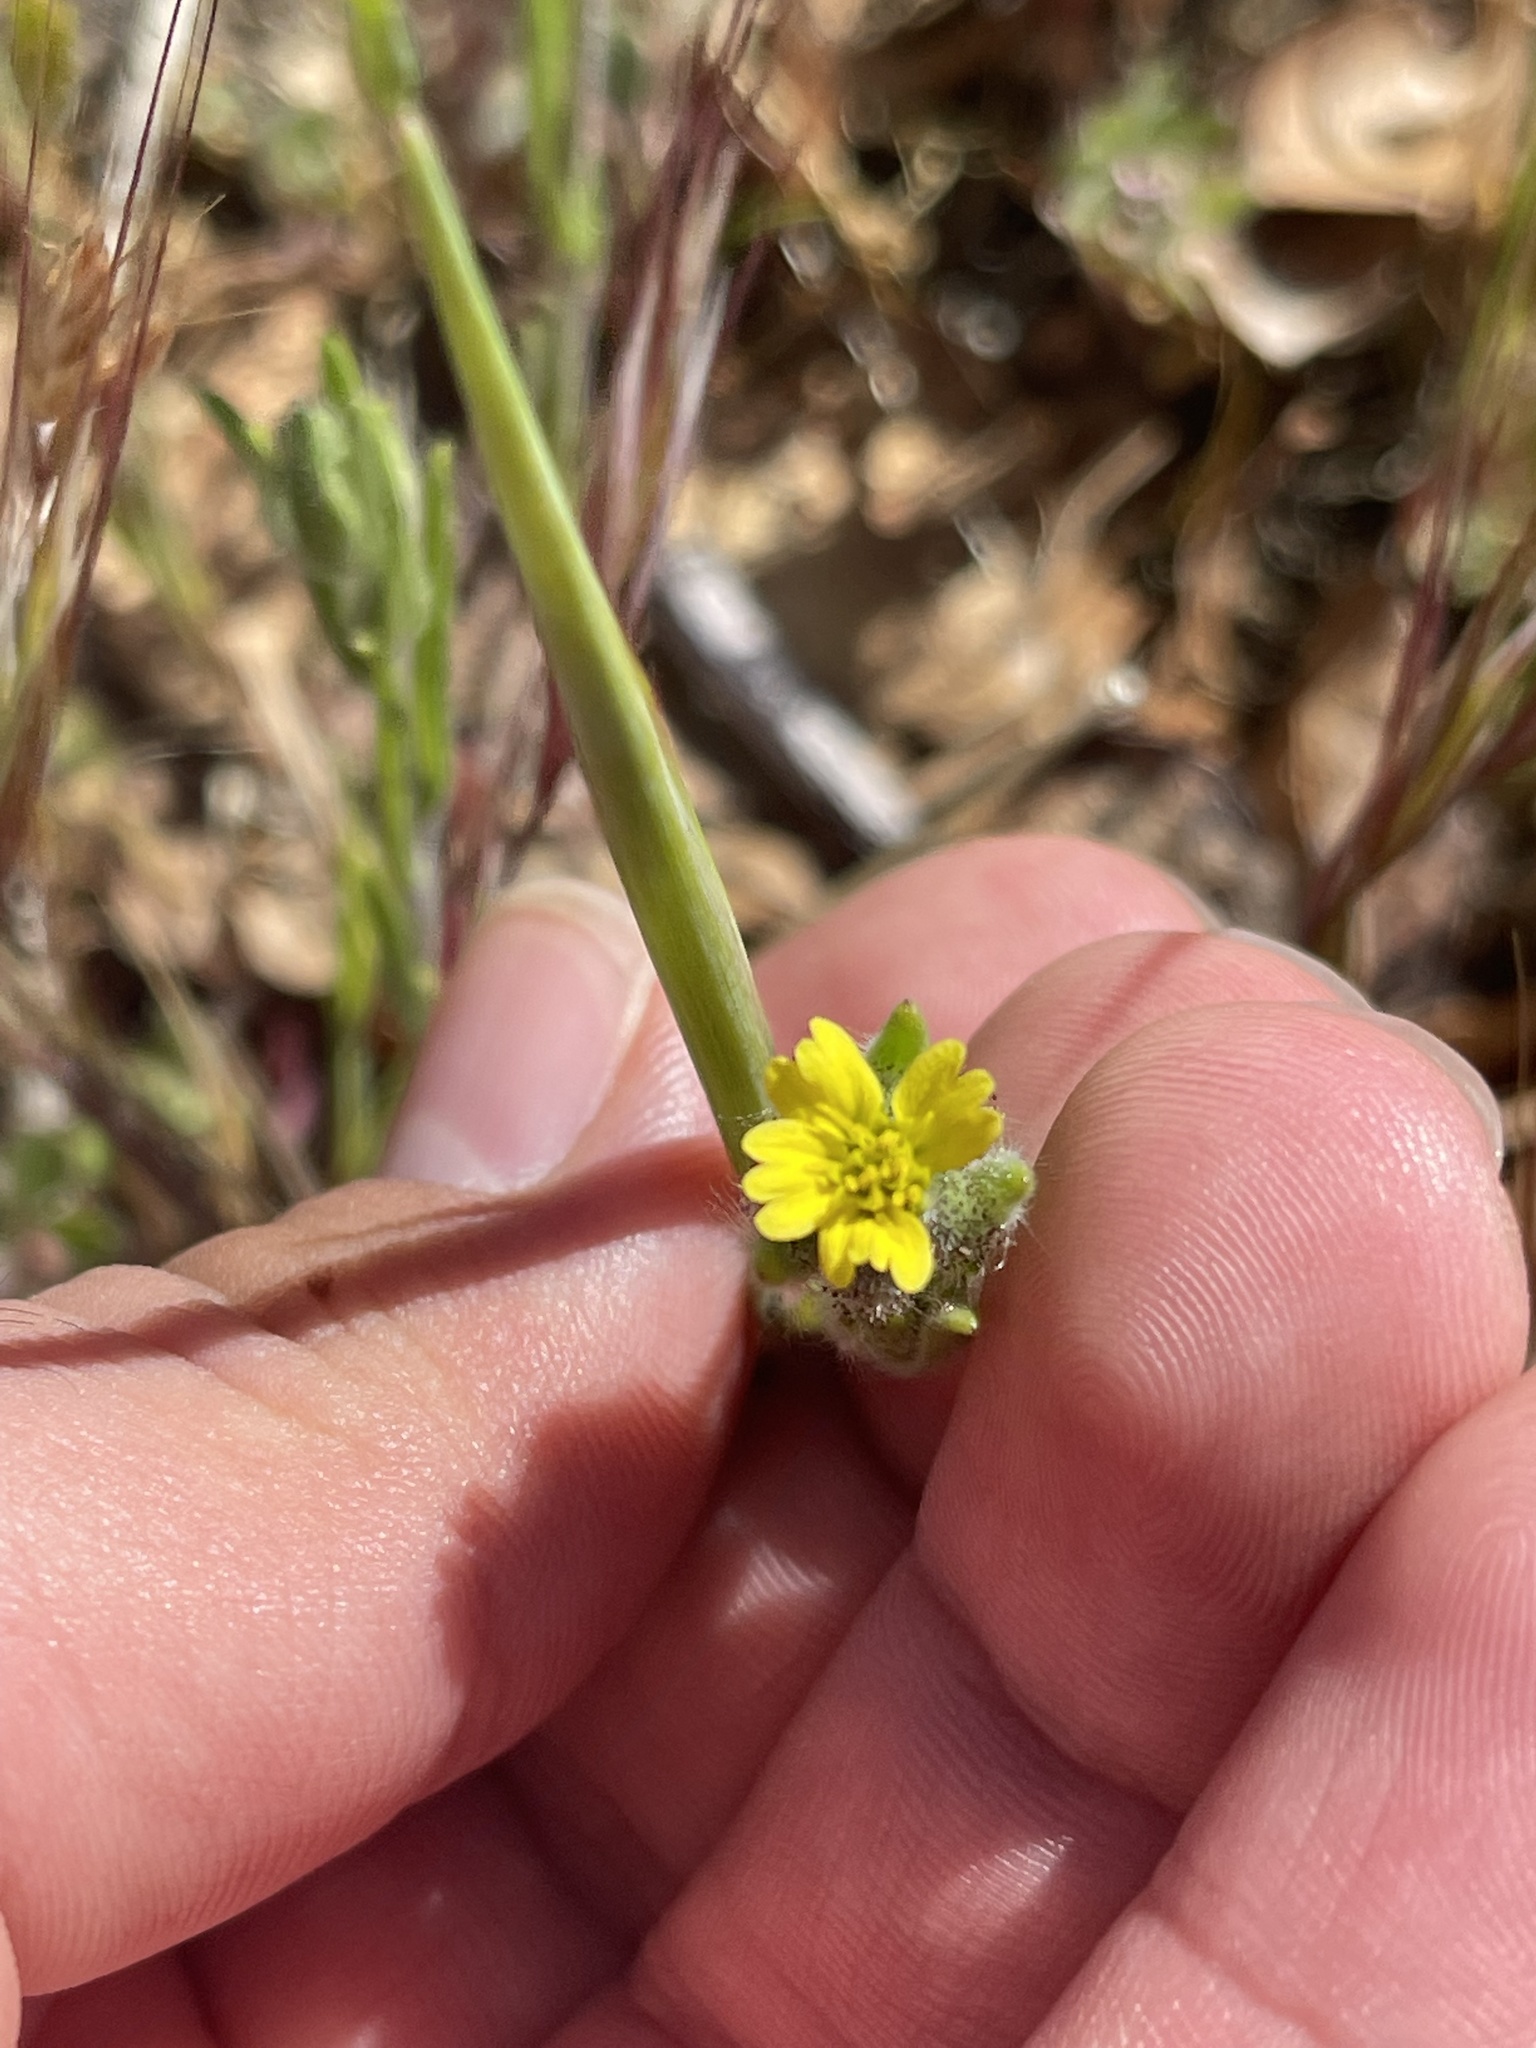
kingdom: Plantae
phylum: Tracheophyta
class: Magnoliopsida
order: Asterales
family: Asteraceae
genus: Madia
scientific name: Madia gracilis
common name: Grassy tarweed
